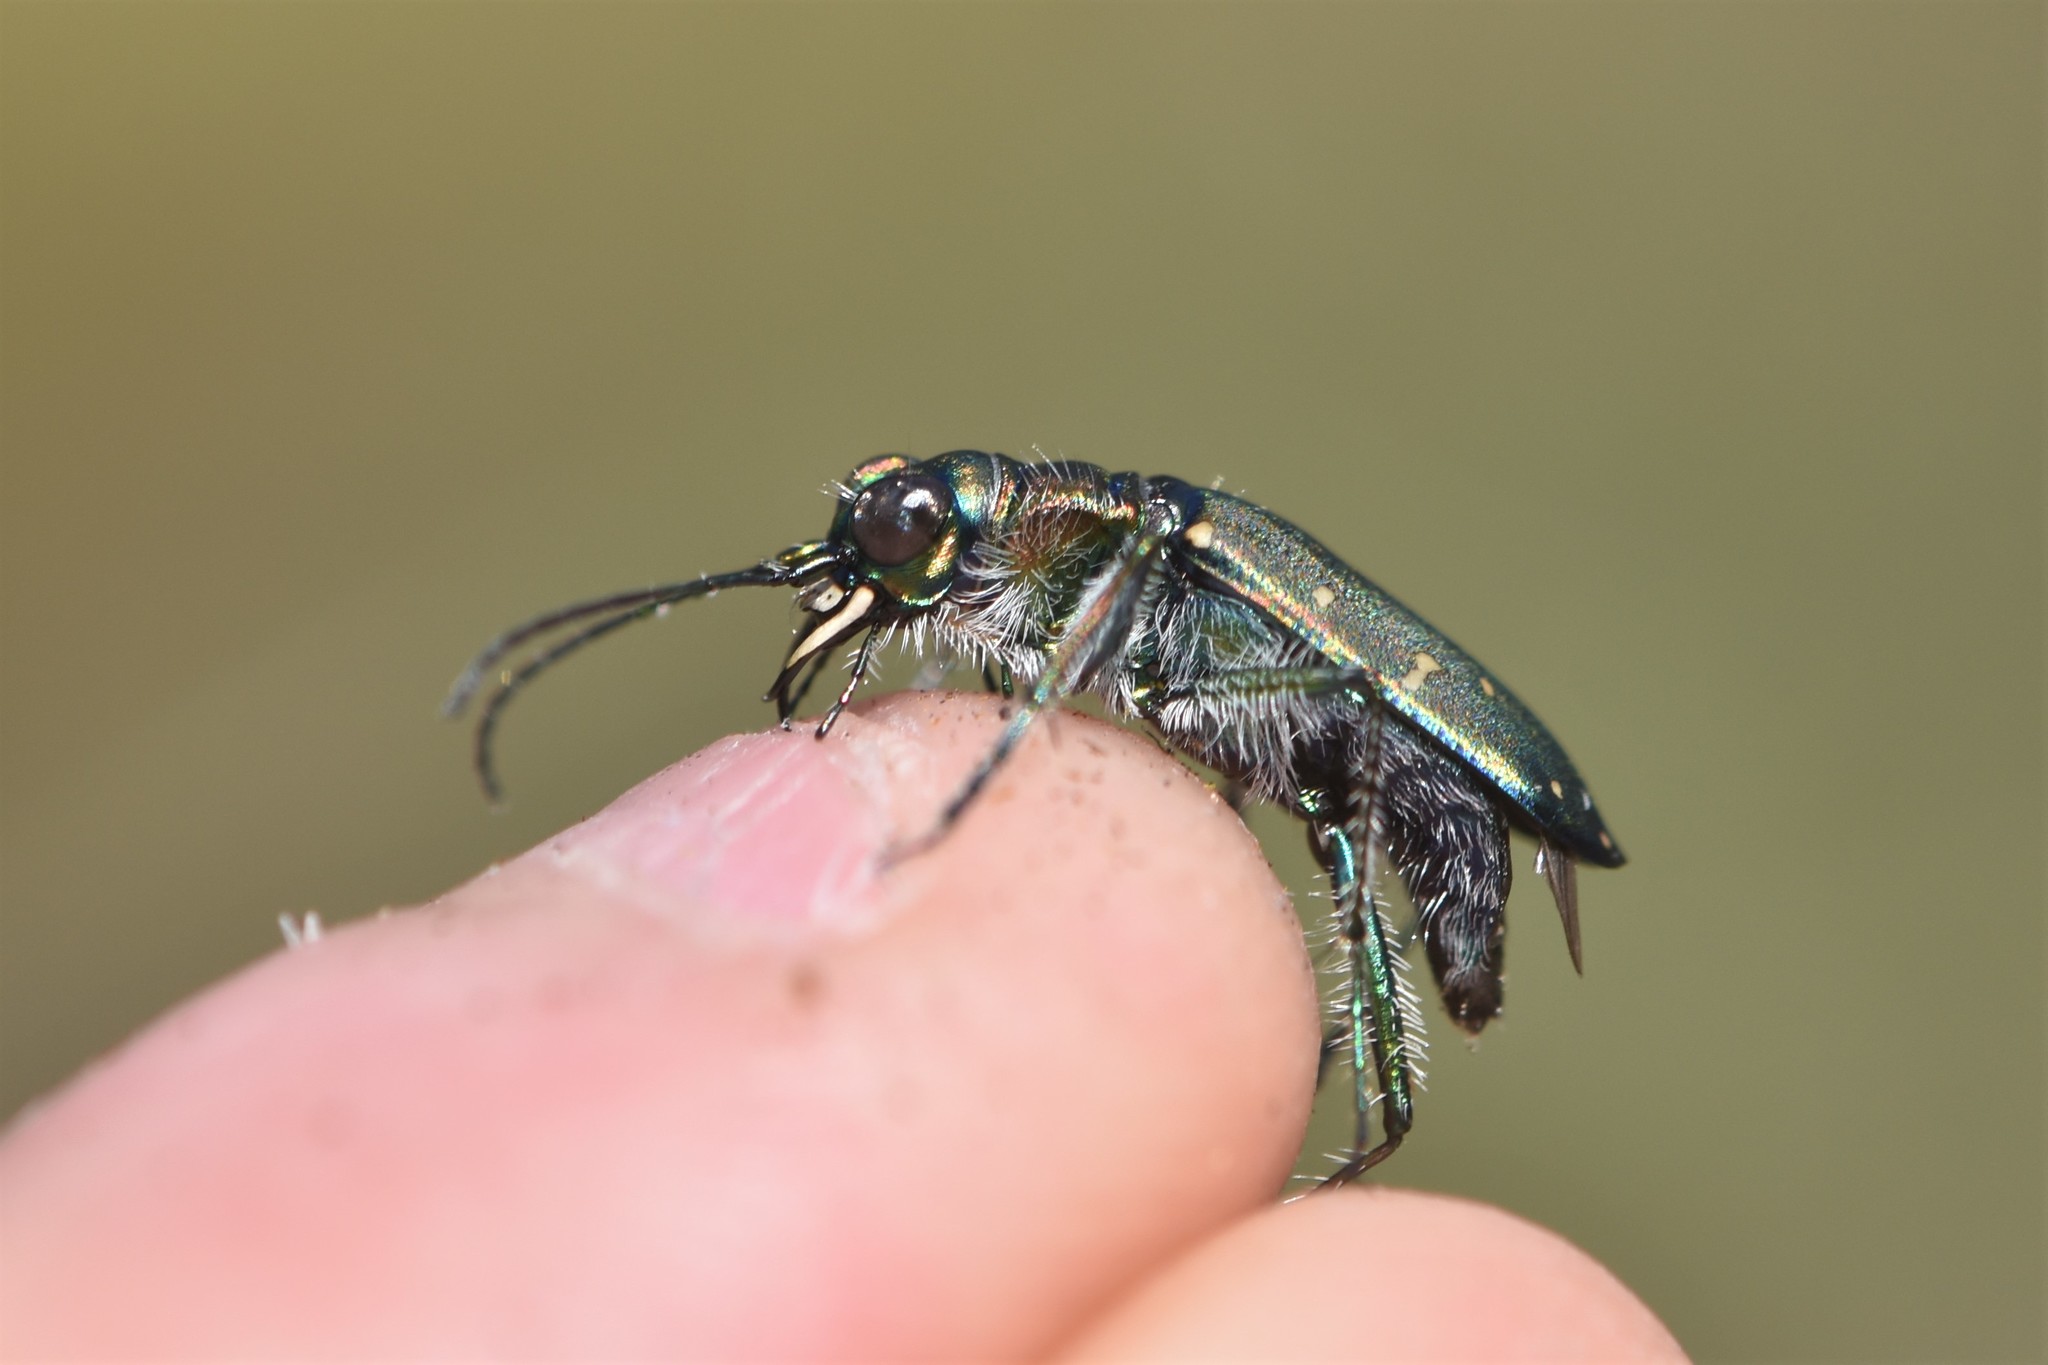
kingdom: Animalia
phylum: Arthropoda
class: Insecta
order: Coleoptera
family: Carabidae
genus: Cicindela
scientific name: Cicindela oregona
